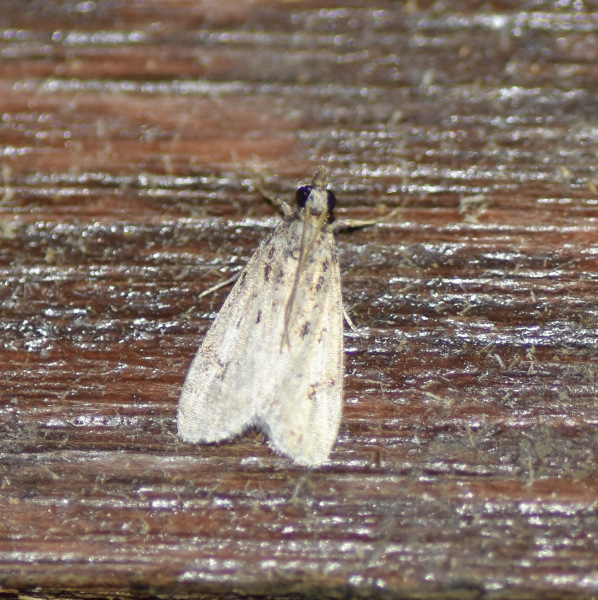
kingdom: Animalia
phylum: Arthropoda
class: Insecta
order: Lepidoptera
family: Crambidae
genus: Eudonia
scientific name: Eudonia strigalis
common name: Striped eudonia moth
